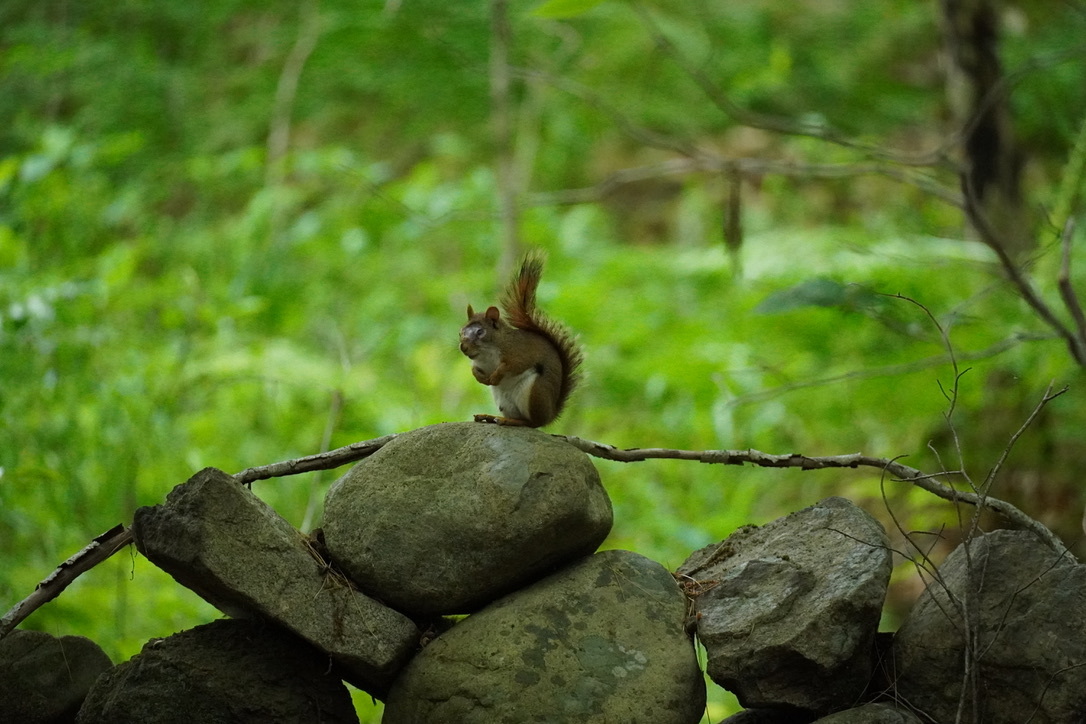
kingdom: Animalia
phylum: Chordata
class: Mammalia
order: Rodentia
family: Sciuridae
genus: Tamiasciurus
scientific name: Tamiasciurus hudsonicus
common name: Red squirrel
